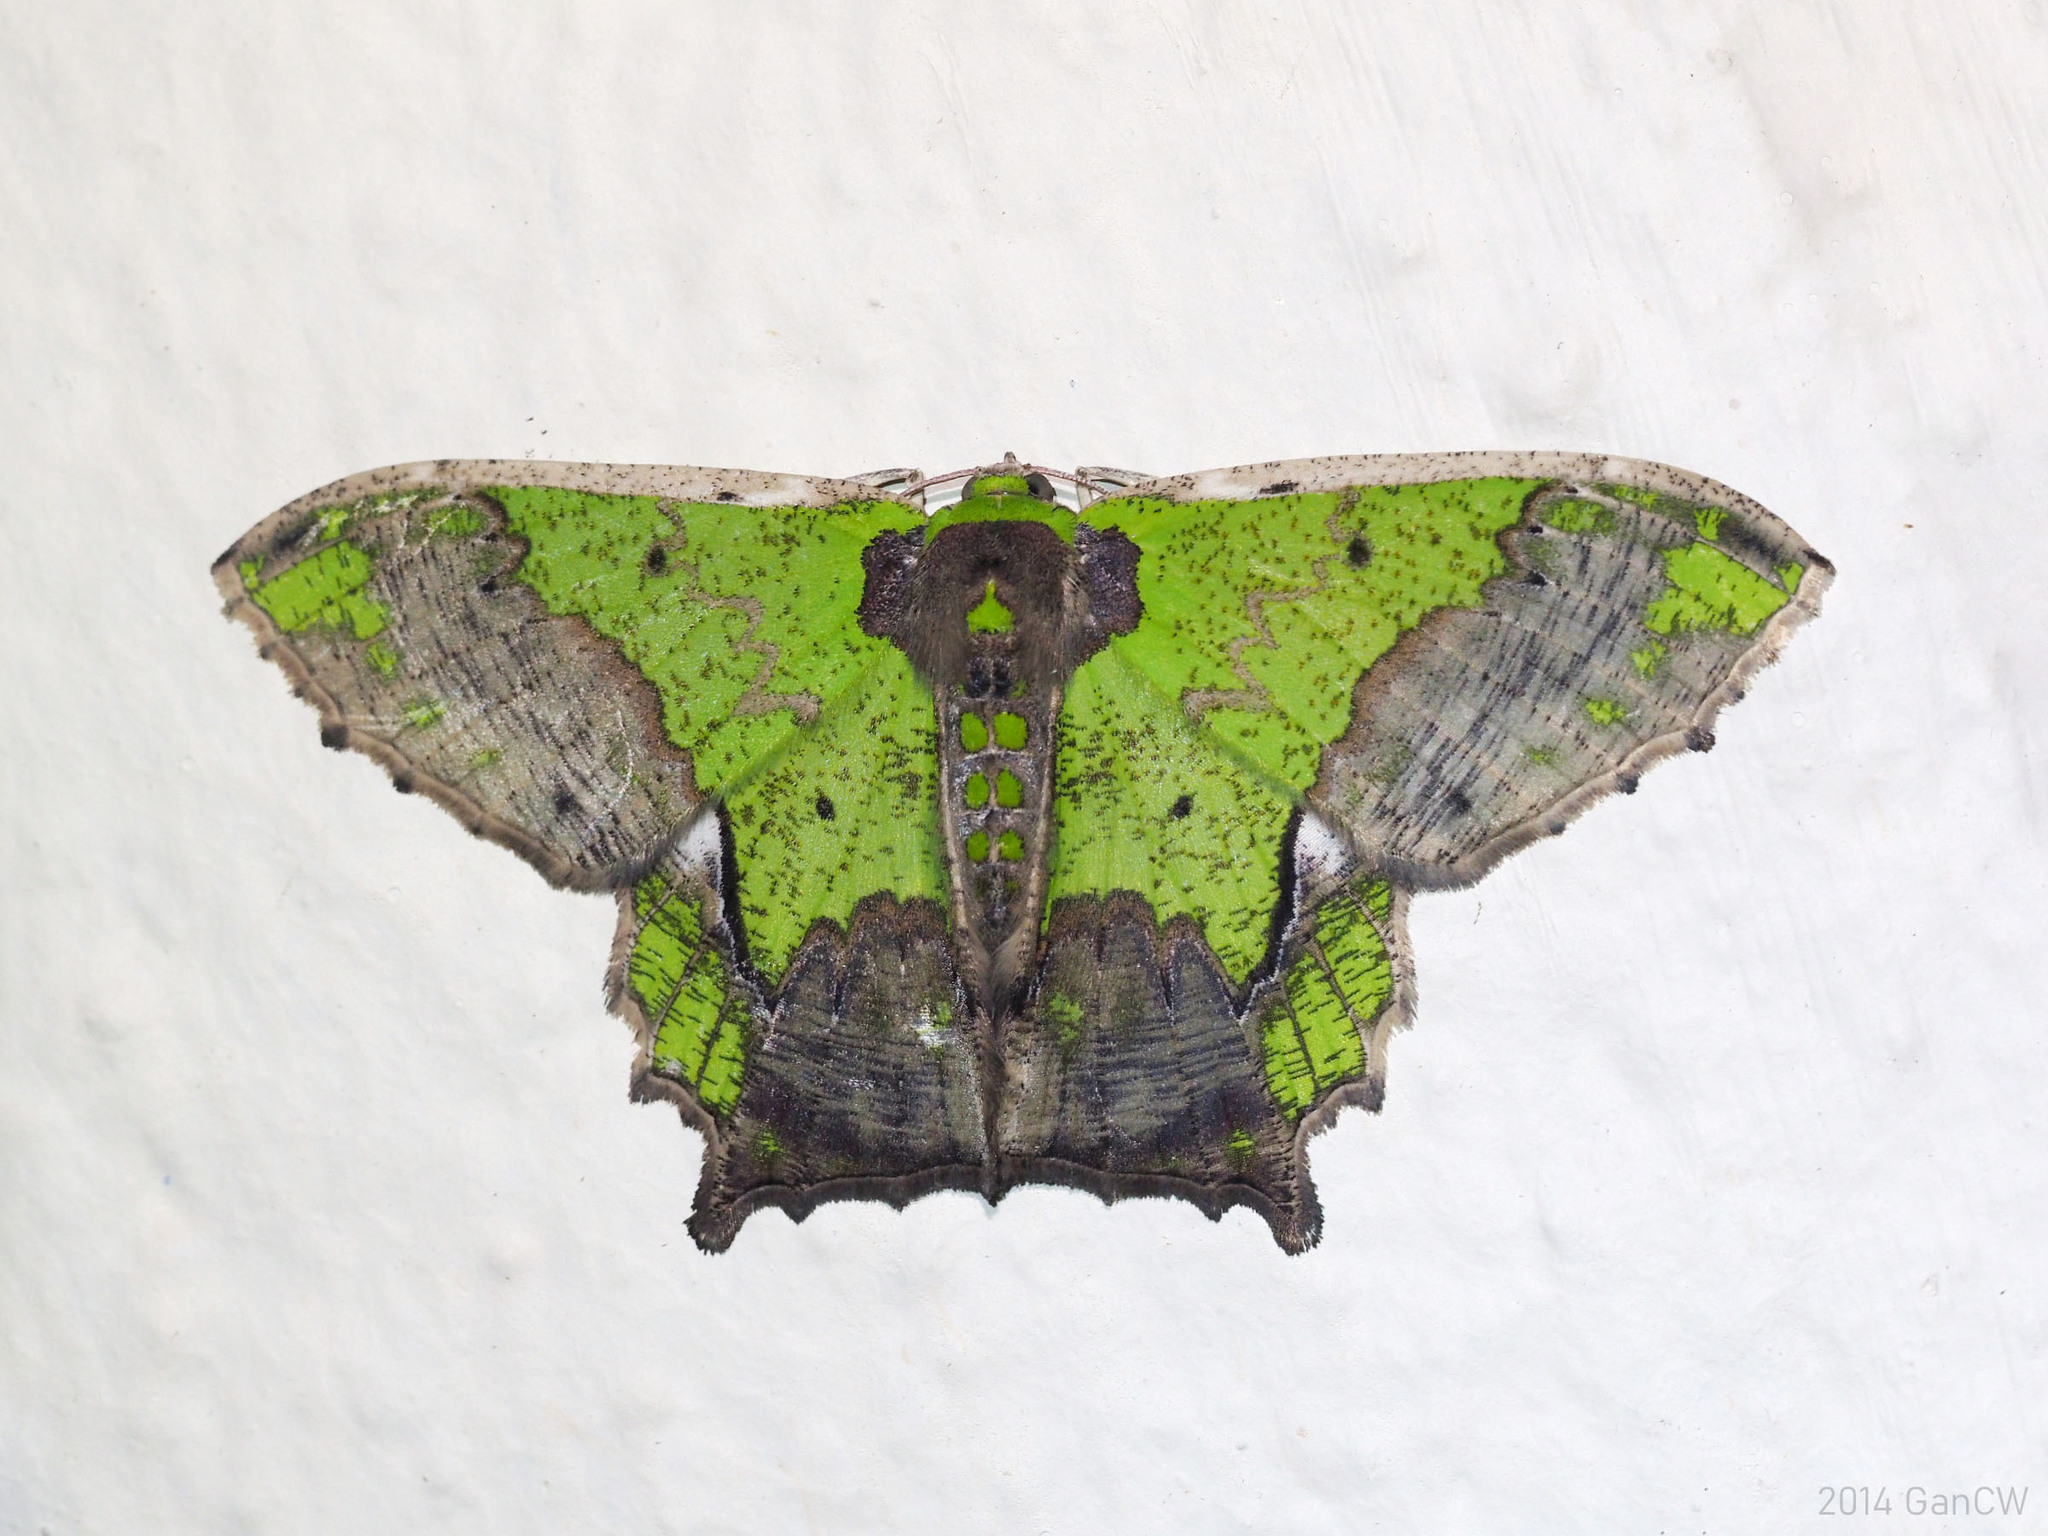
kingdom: Animalia
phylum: Arthropoda
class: Insecta
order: Lepidoptera
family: Geometridae
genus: Agathia
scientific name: Agathia codina
